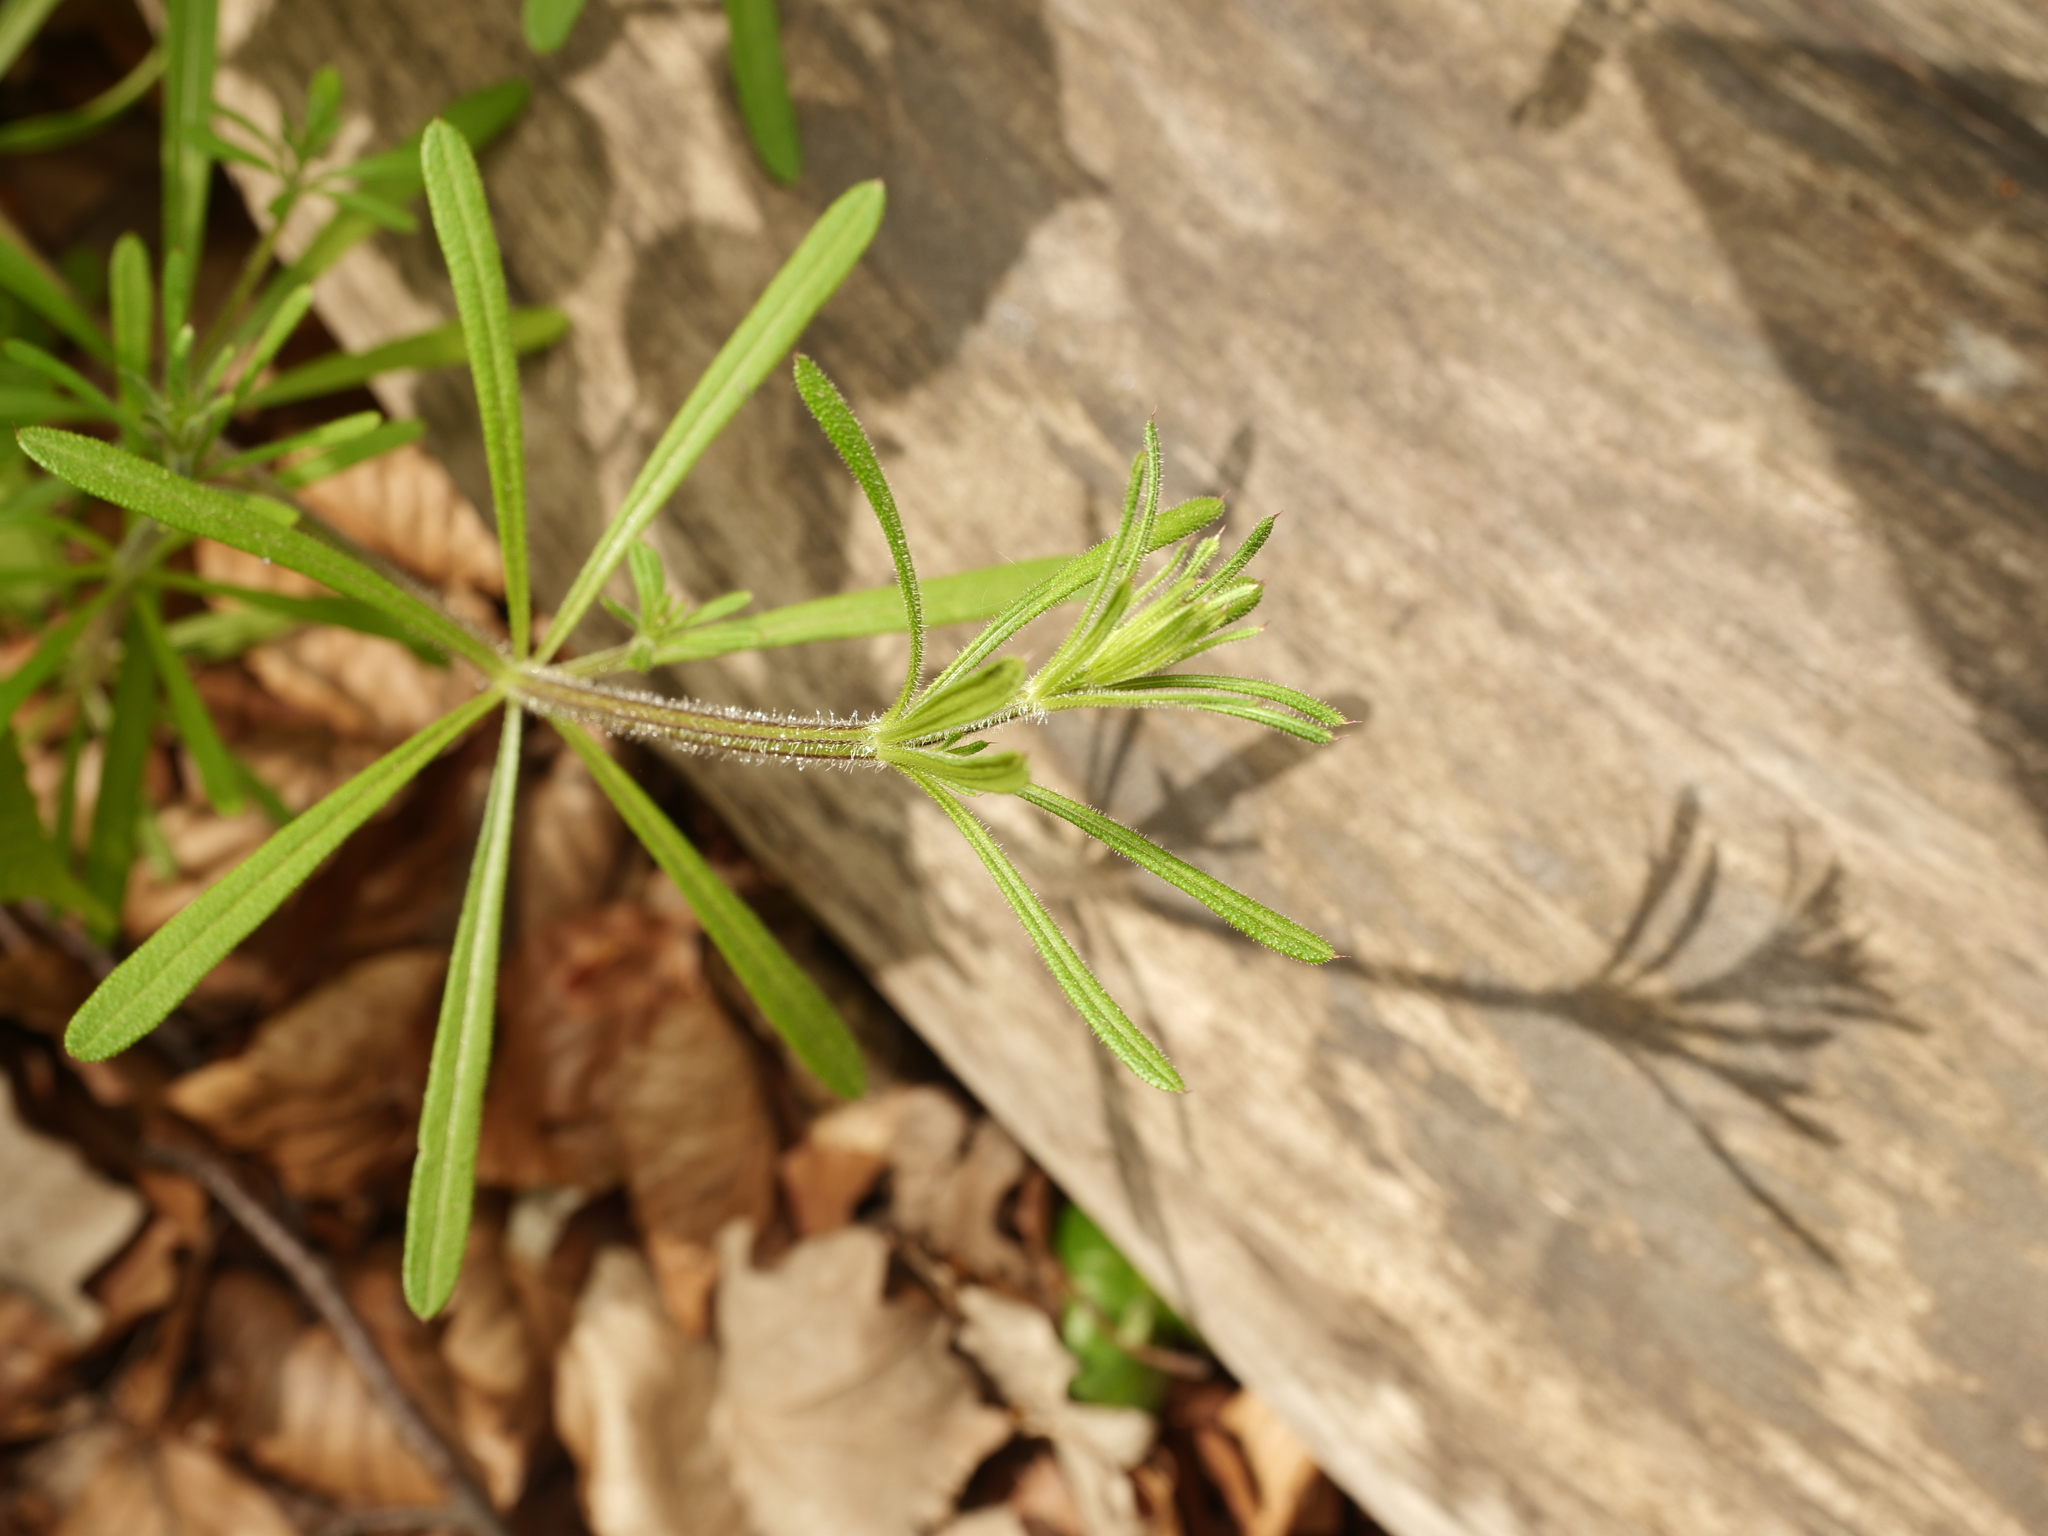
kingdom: Plantae
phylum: Tracheophyta
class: Magnoliopsida
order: Gentianales
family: Rubiaceae
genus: Galium
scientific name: Galium aparine
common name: Cleavers
